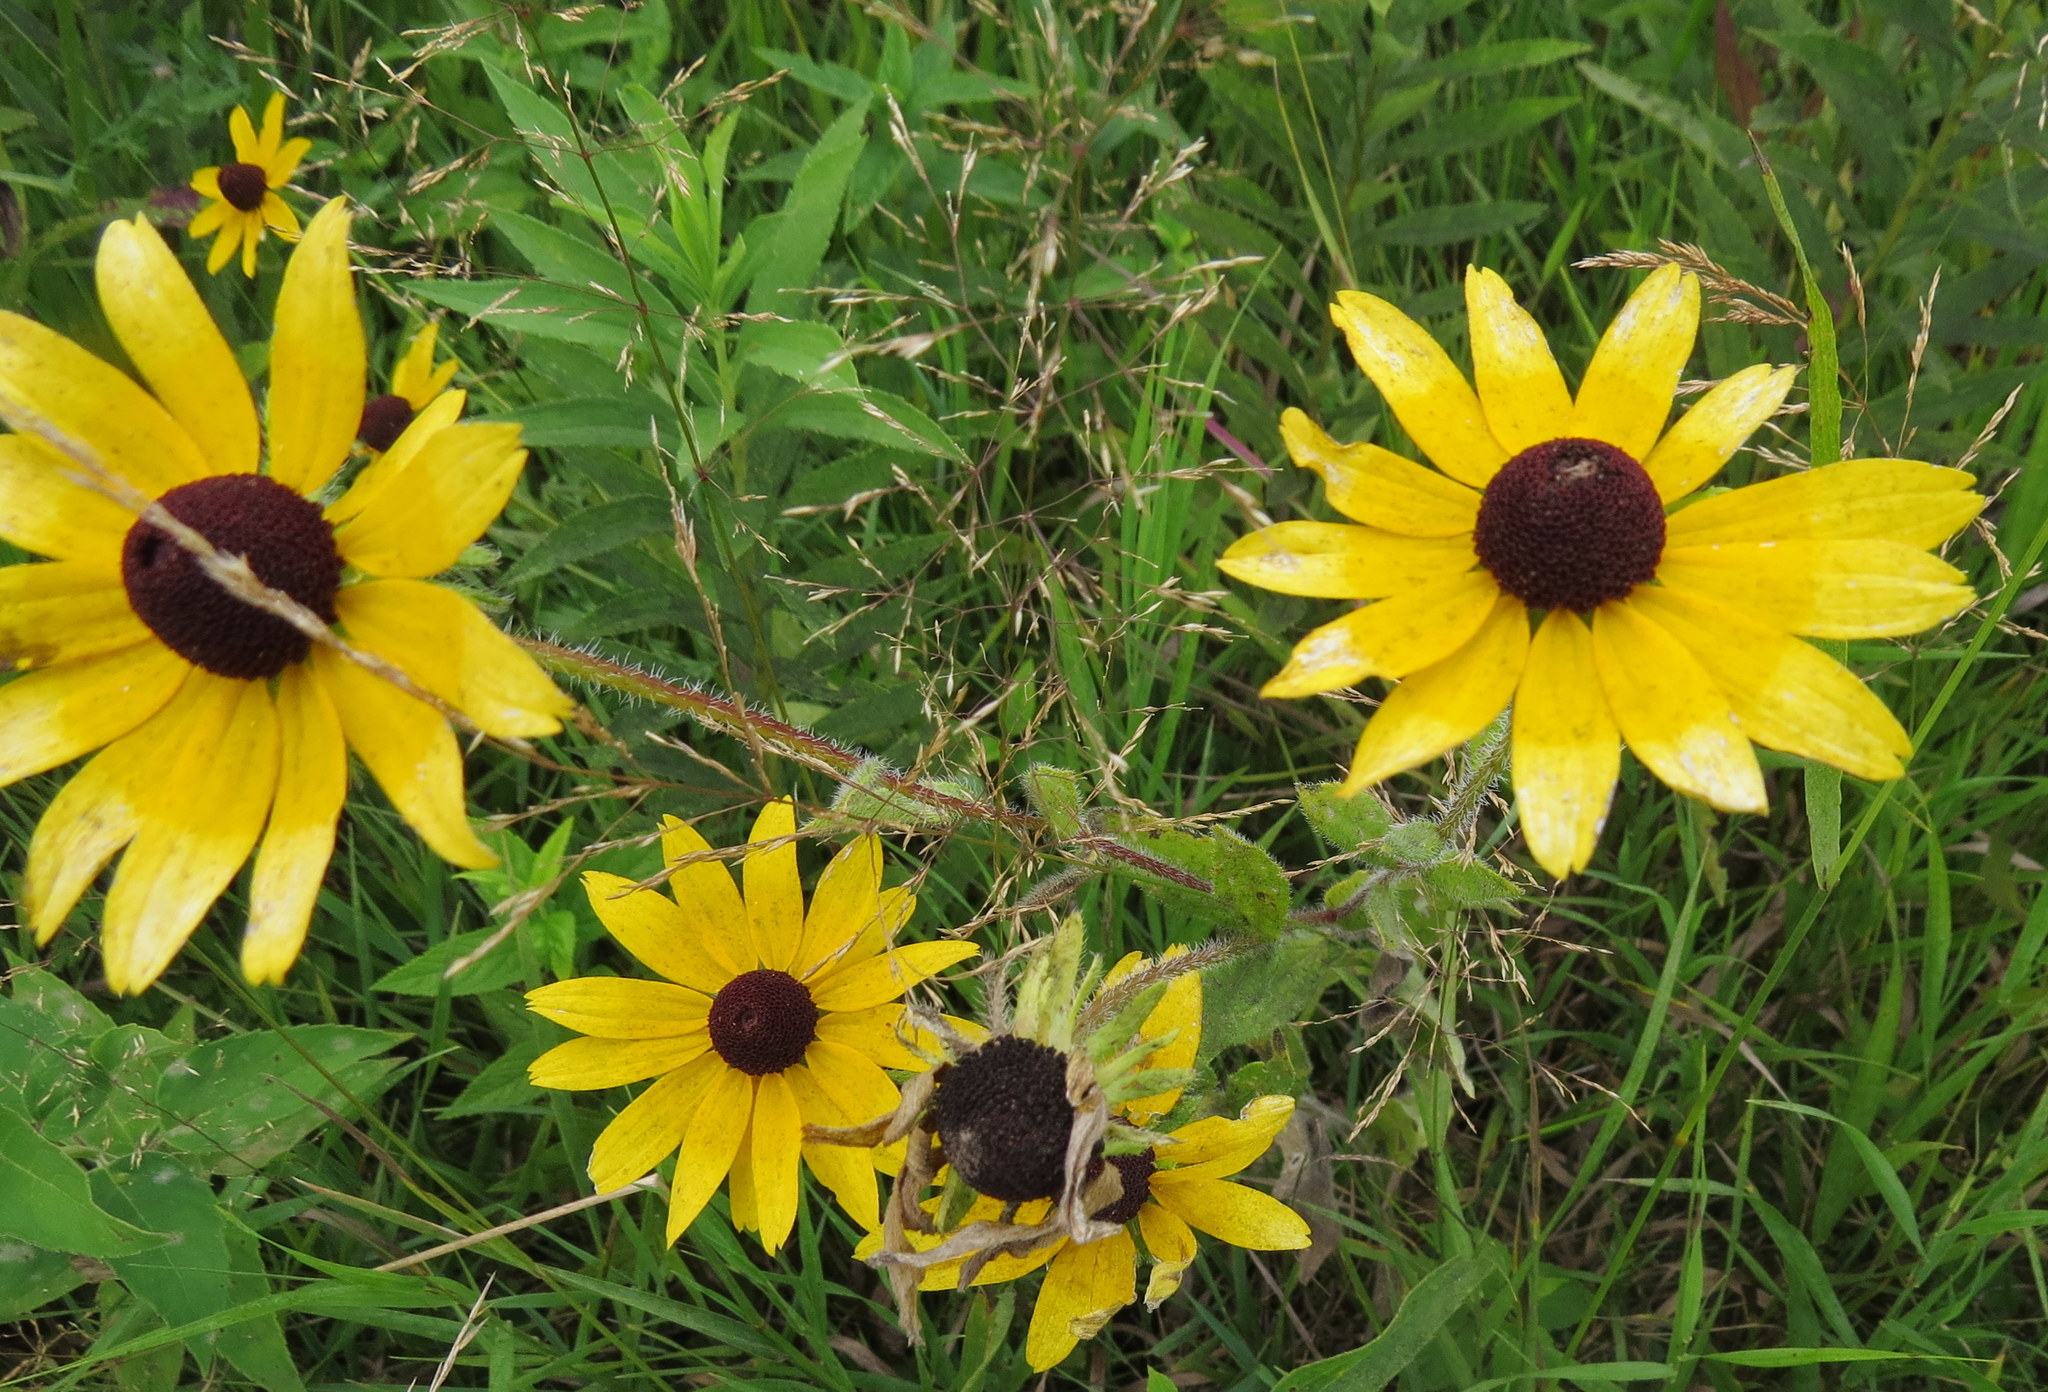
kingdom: Plantae
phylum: Tracheophyta
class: Magnoliopsida
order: Asterales
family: Asteraceae
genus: Rudbeckia
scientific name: Rudbeckia hirta
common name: Black-eyed-susan
